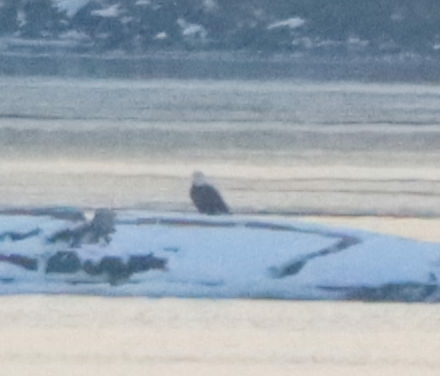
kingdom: Animalia
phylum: Chordata
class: Aves
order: Accipitriformes
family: Accipitridae
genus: Haliaeetus
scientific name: Haliaeetus leucocephalus
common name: Bald eagle
